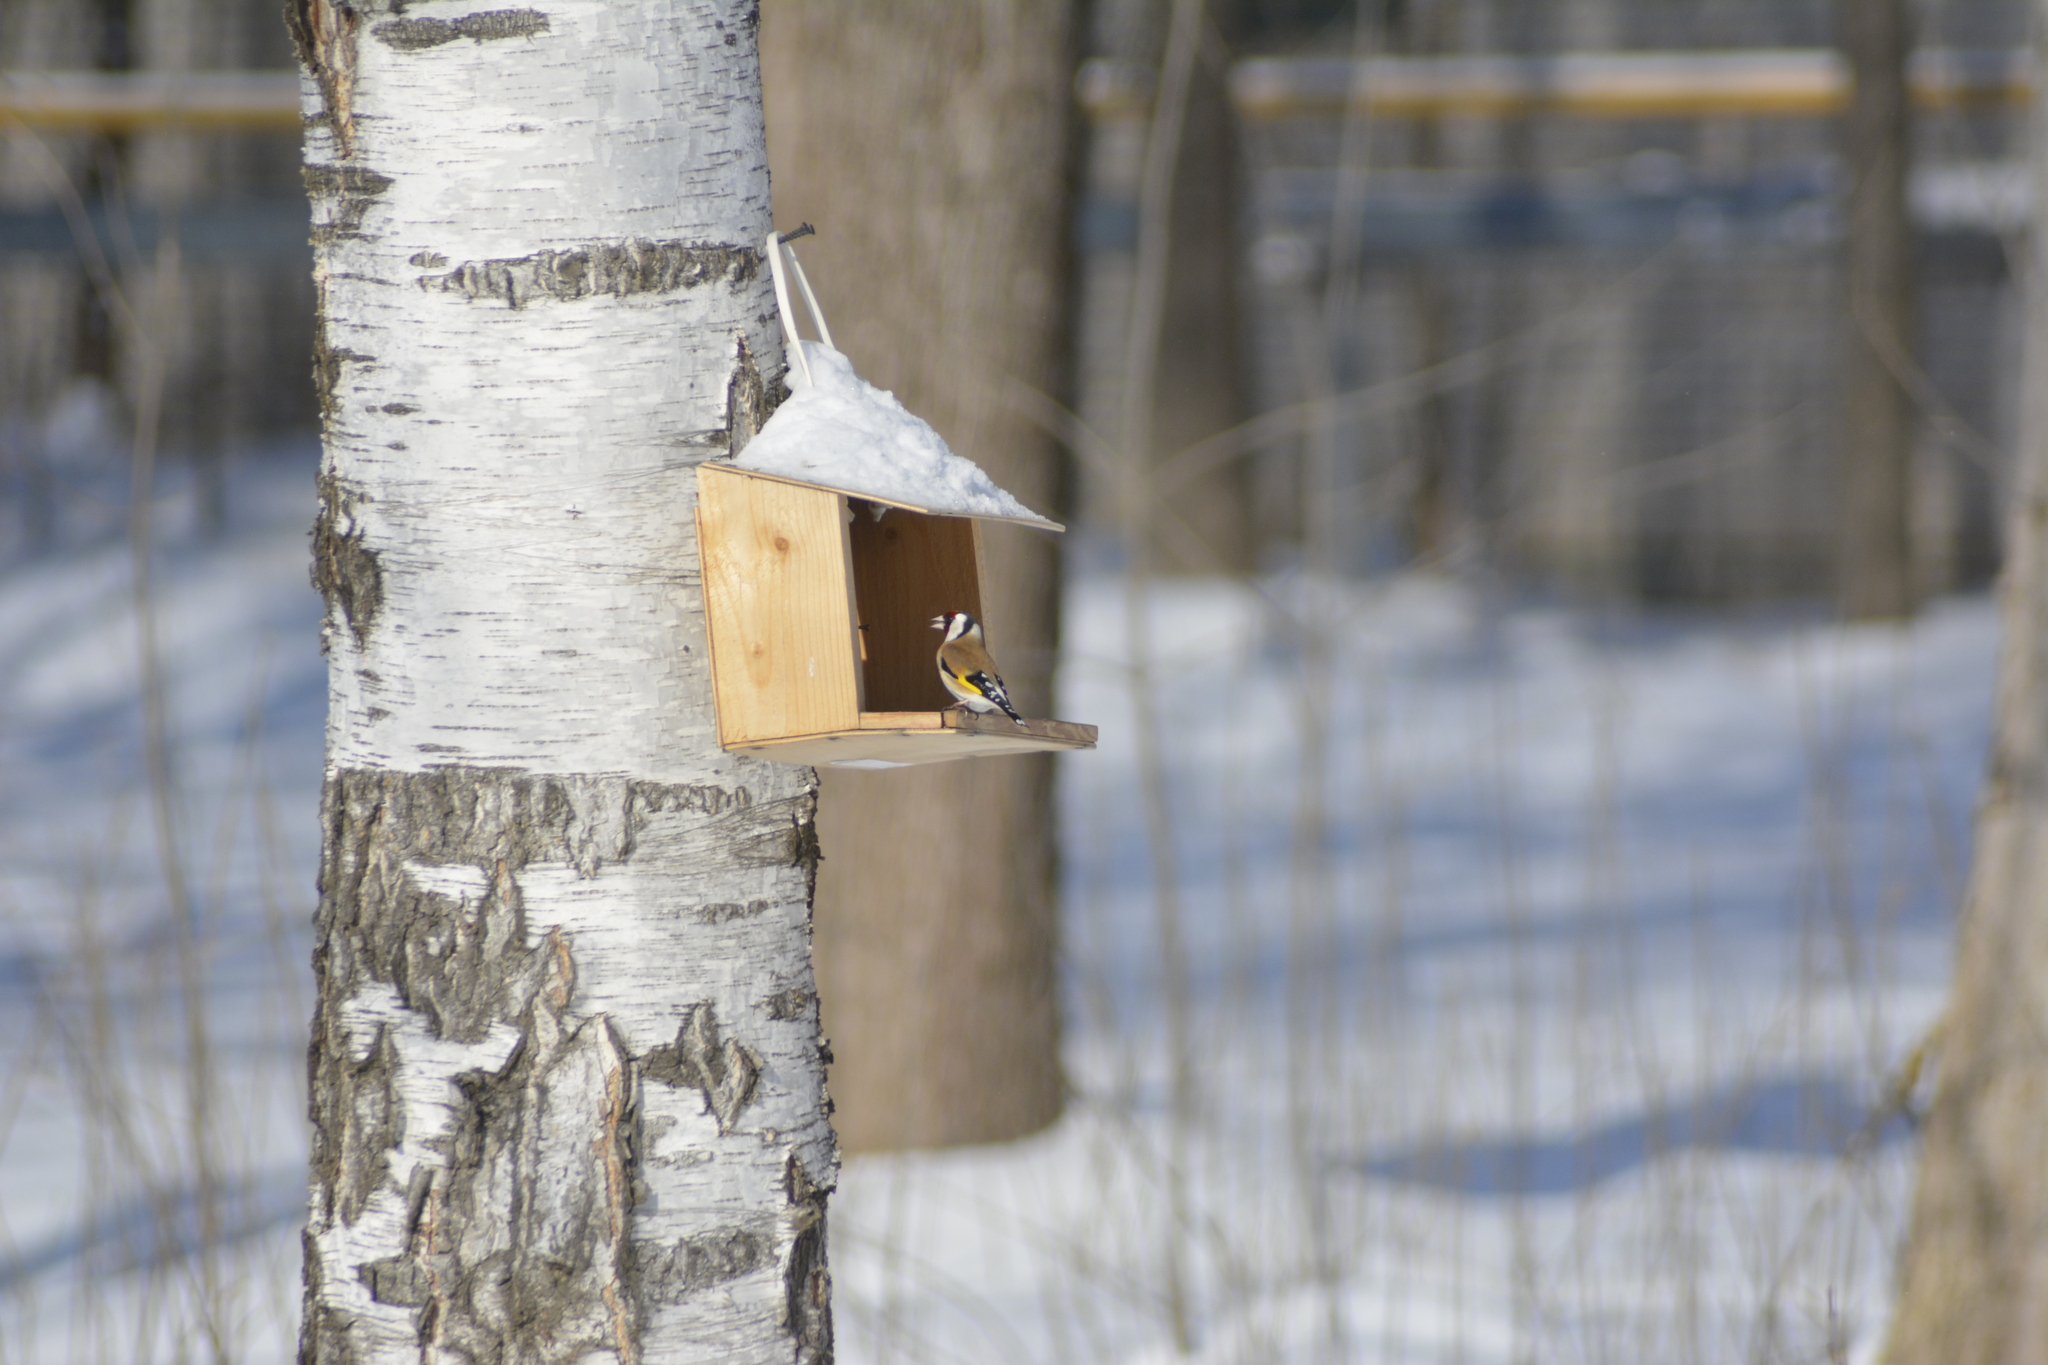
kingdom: Animalia
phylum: Chordata
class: Aves
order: Passeriformes
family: Fringillidae
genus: Carduelis
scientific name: Carduelis carduelis
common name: European goldfinch
